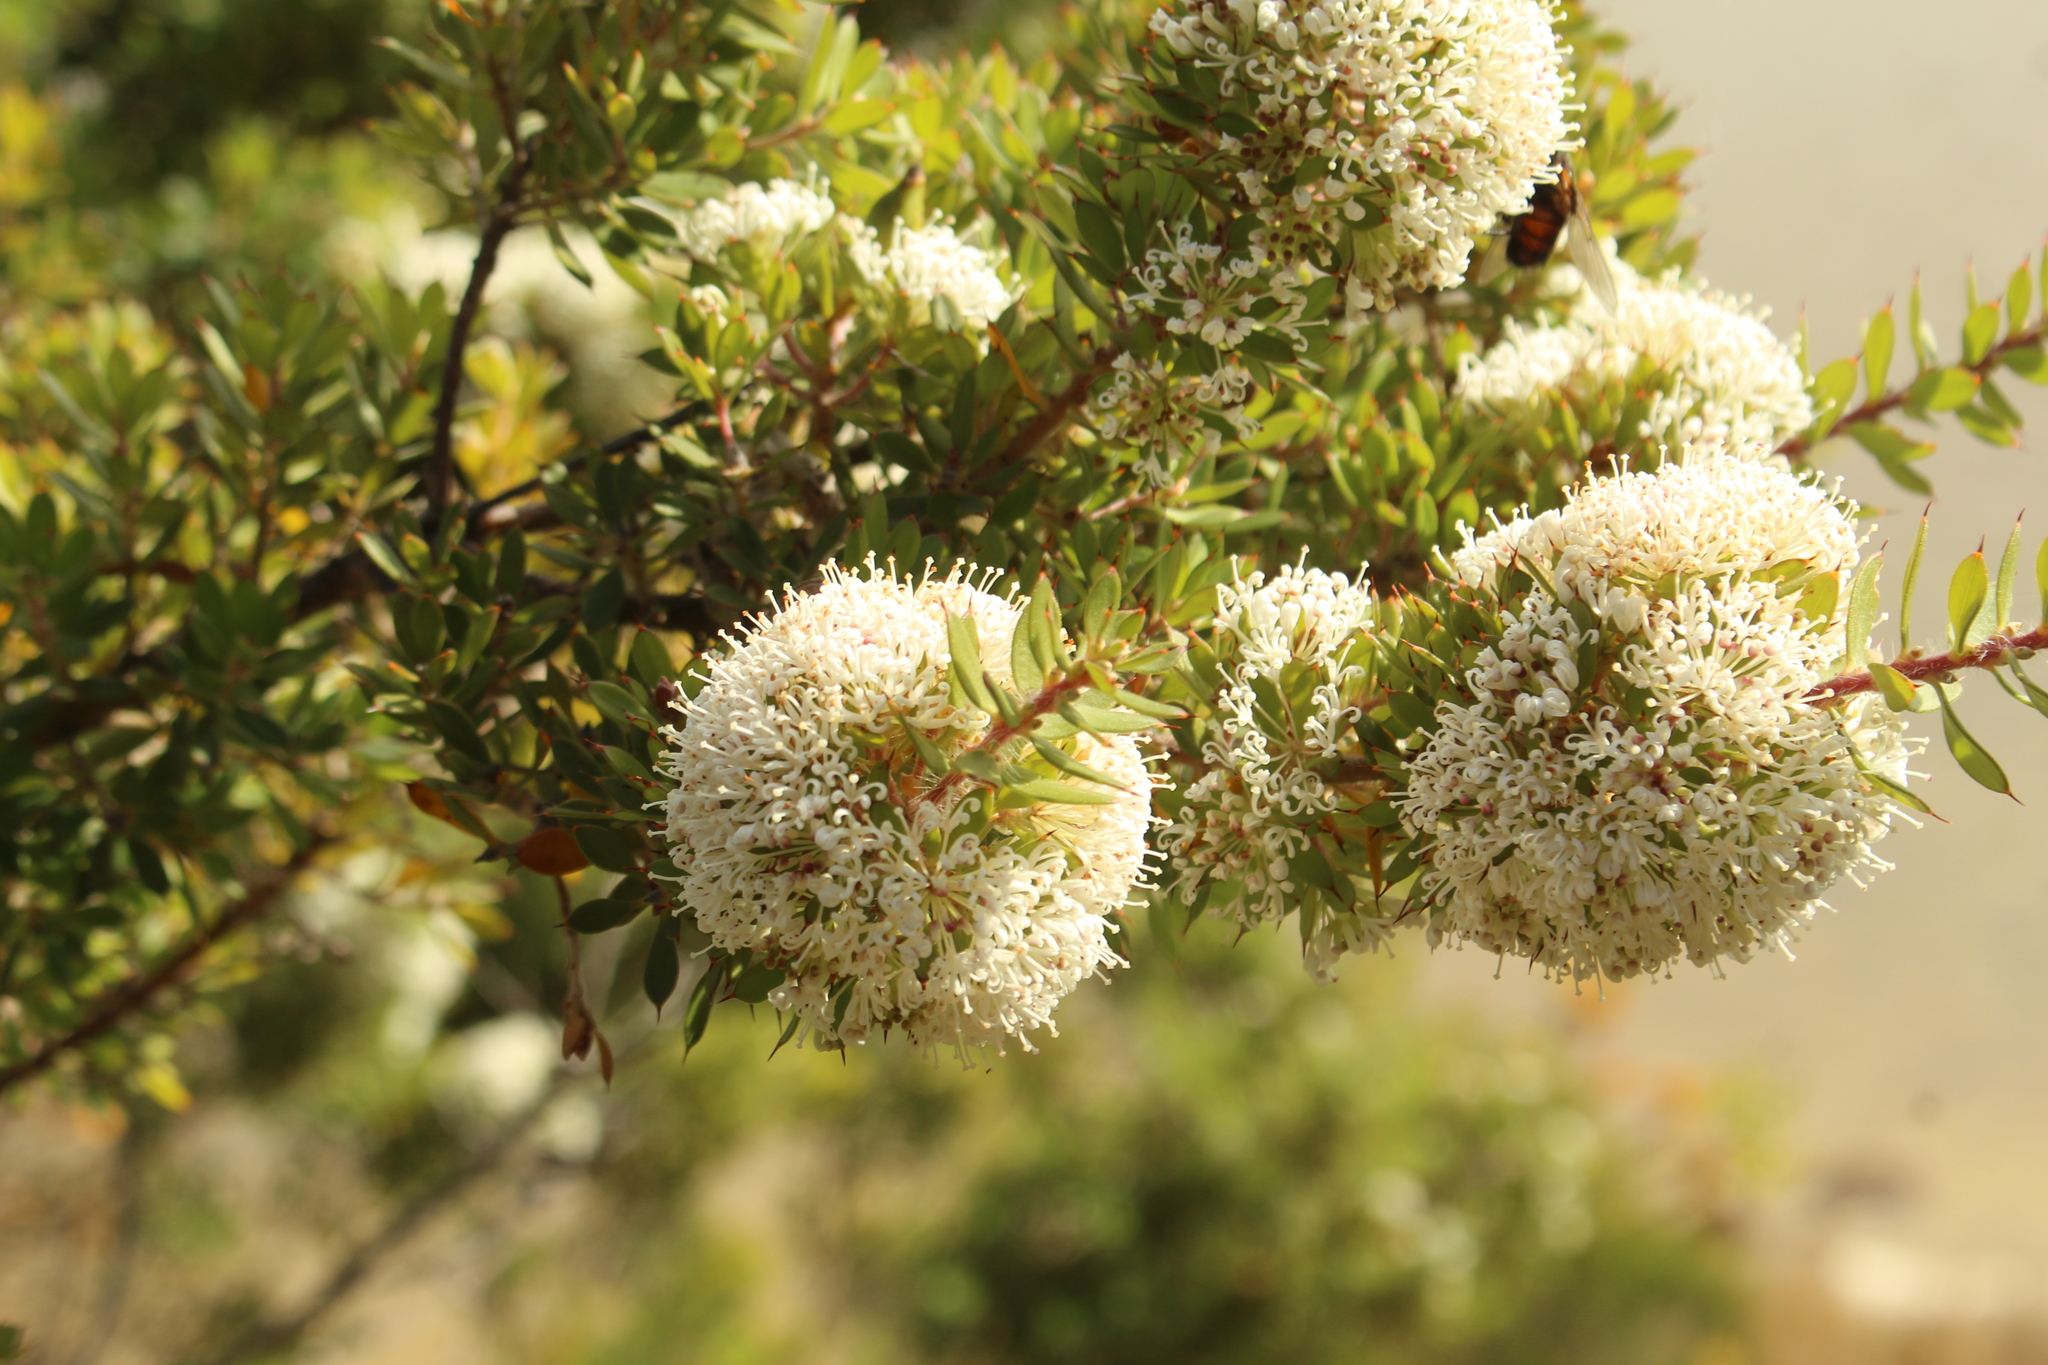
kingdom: Plantae
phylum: Tracheophyta
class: Magnoliopsida
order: Proteales
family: Proteaceae
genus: Hakea
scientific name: Hakea ruscifolia
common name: Candle hakea
